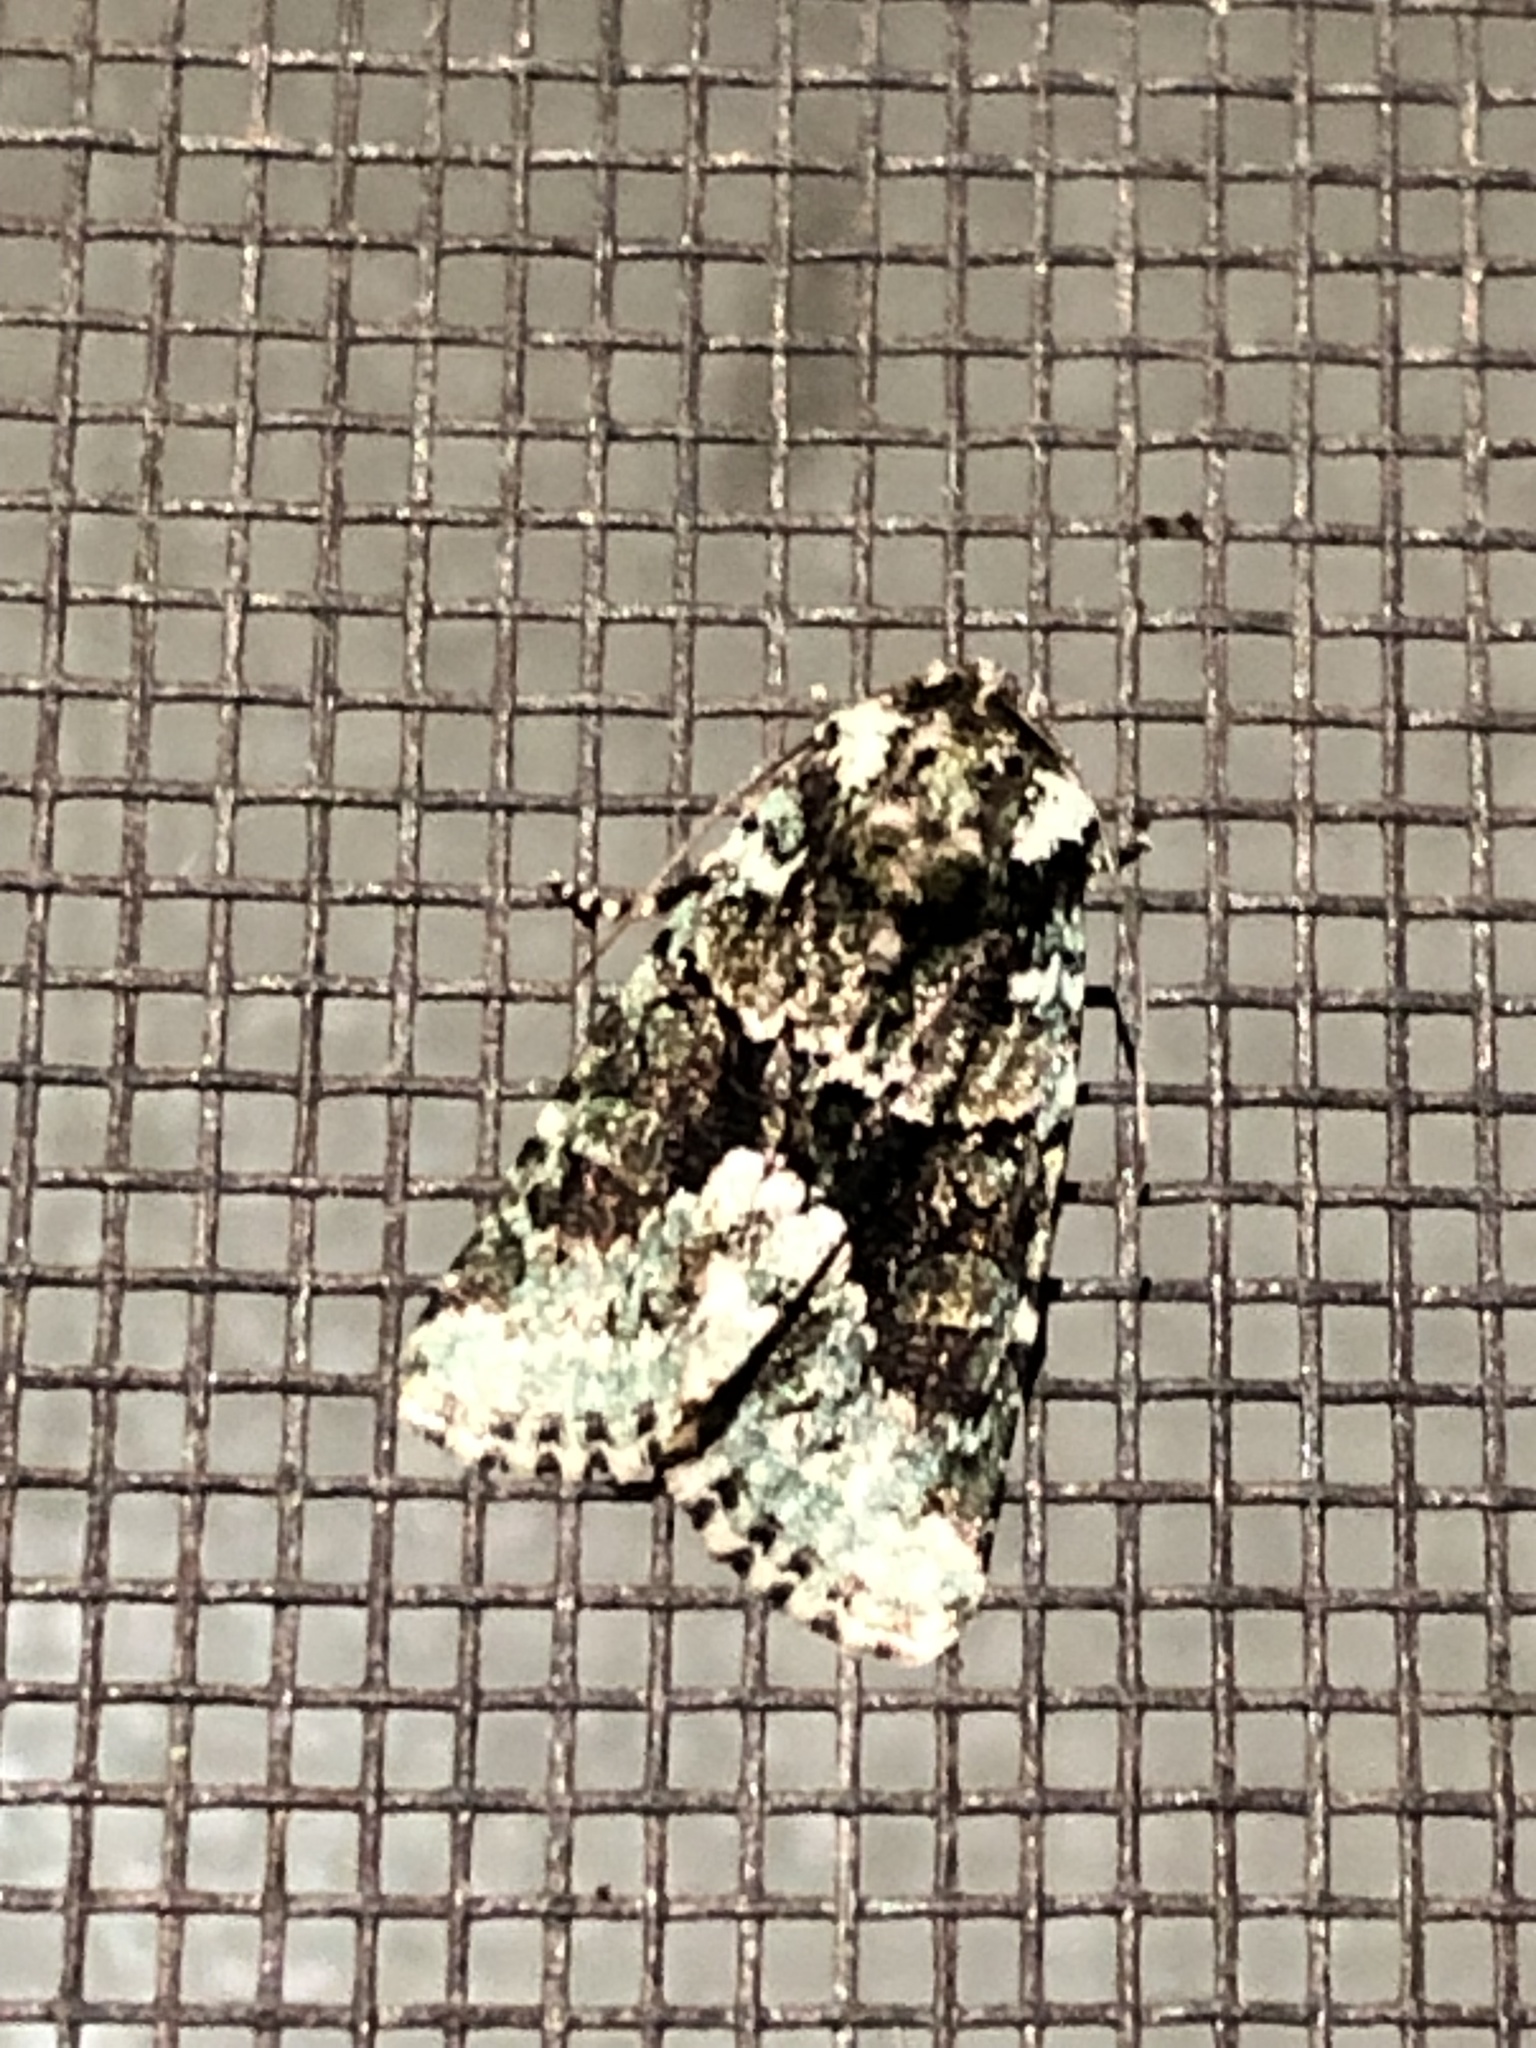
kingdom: Animalia
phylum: Arthropoda
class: Insecta
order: Lepidoptera
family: Noctuidae
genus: Lacinipolia
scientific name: Lacinipolia explicata
